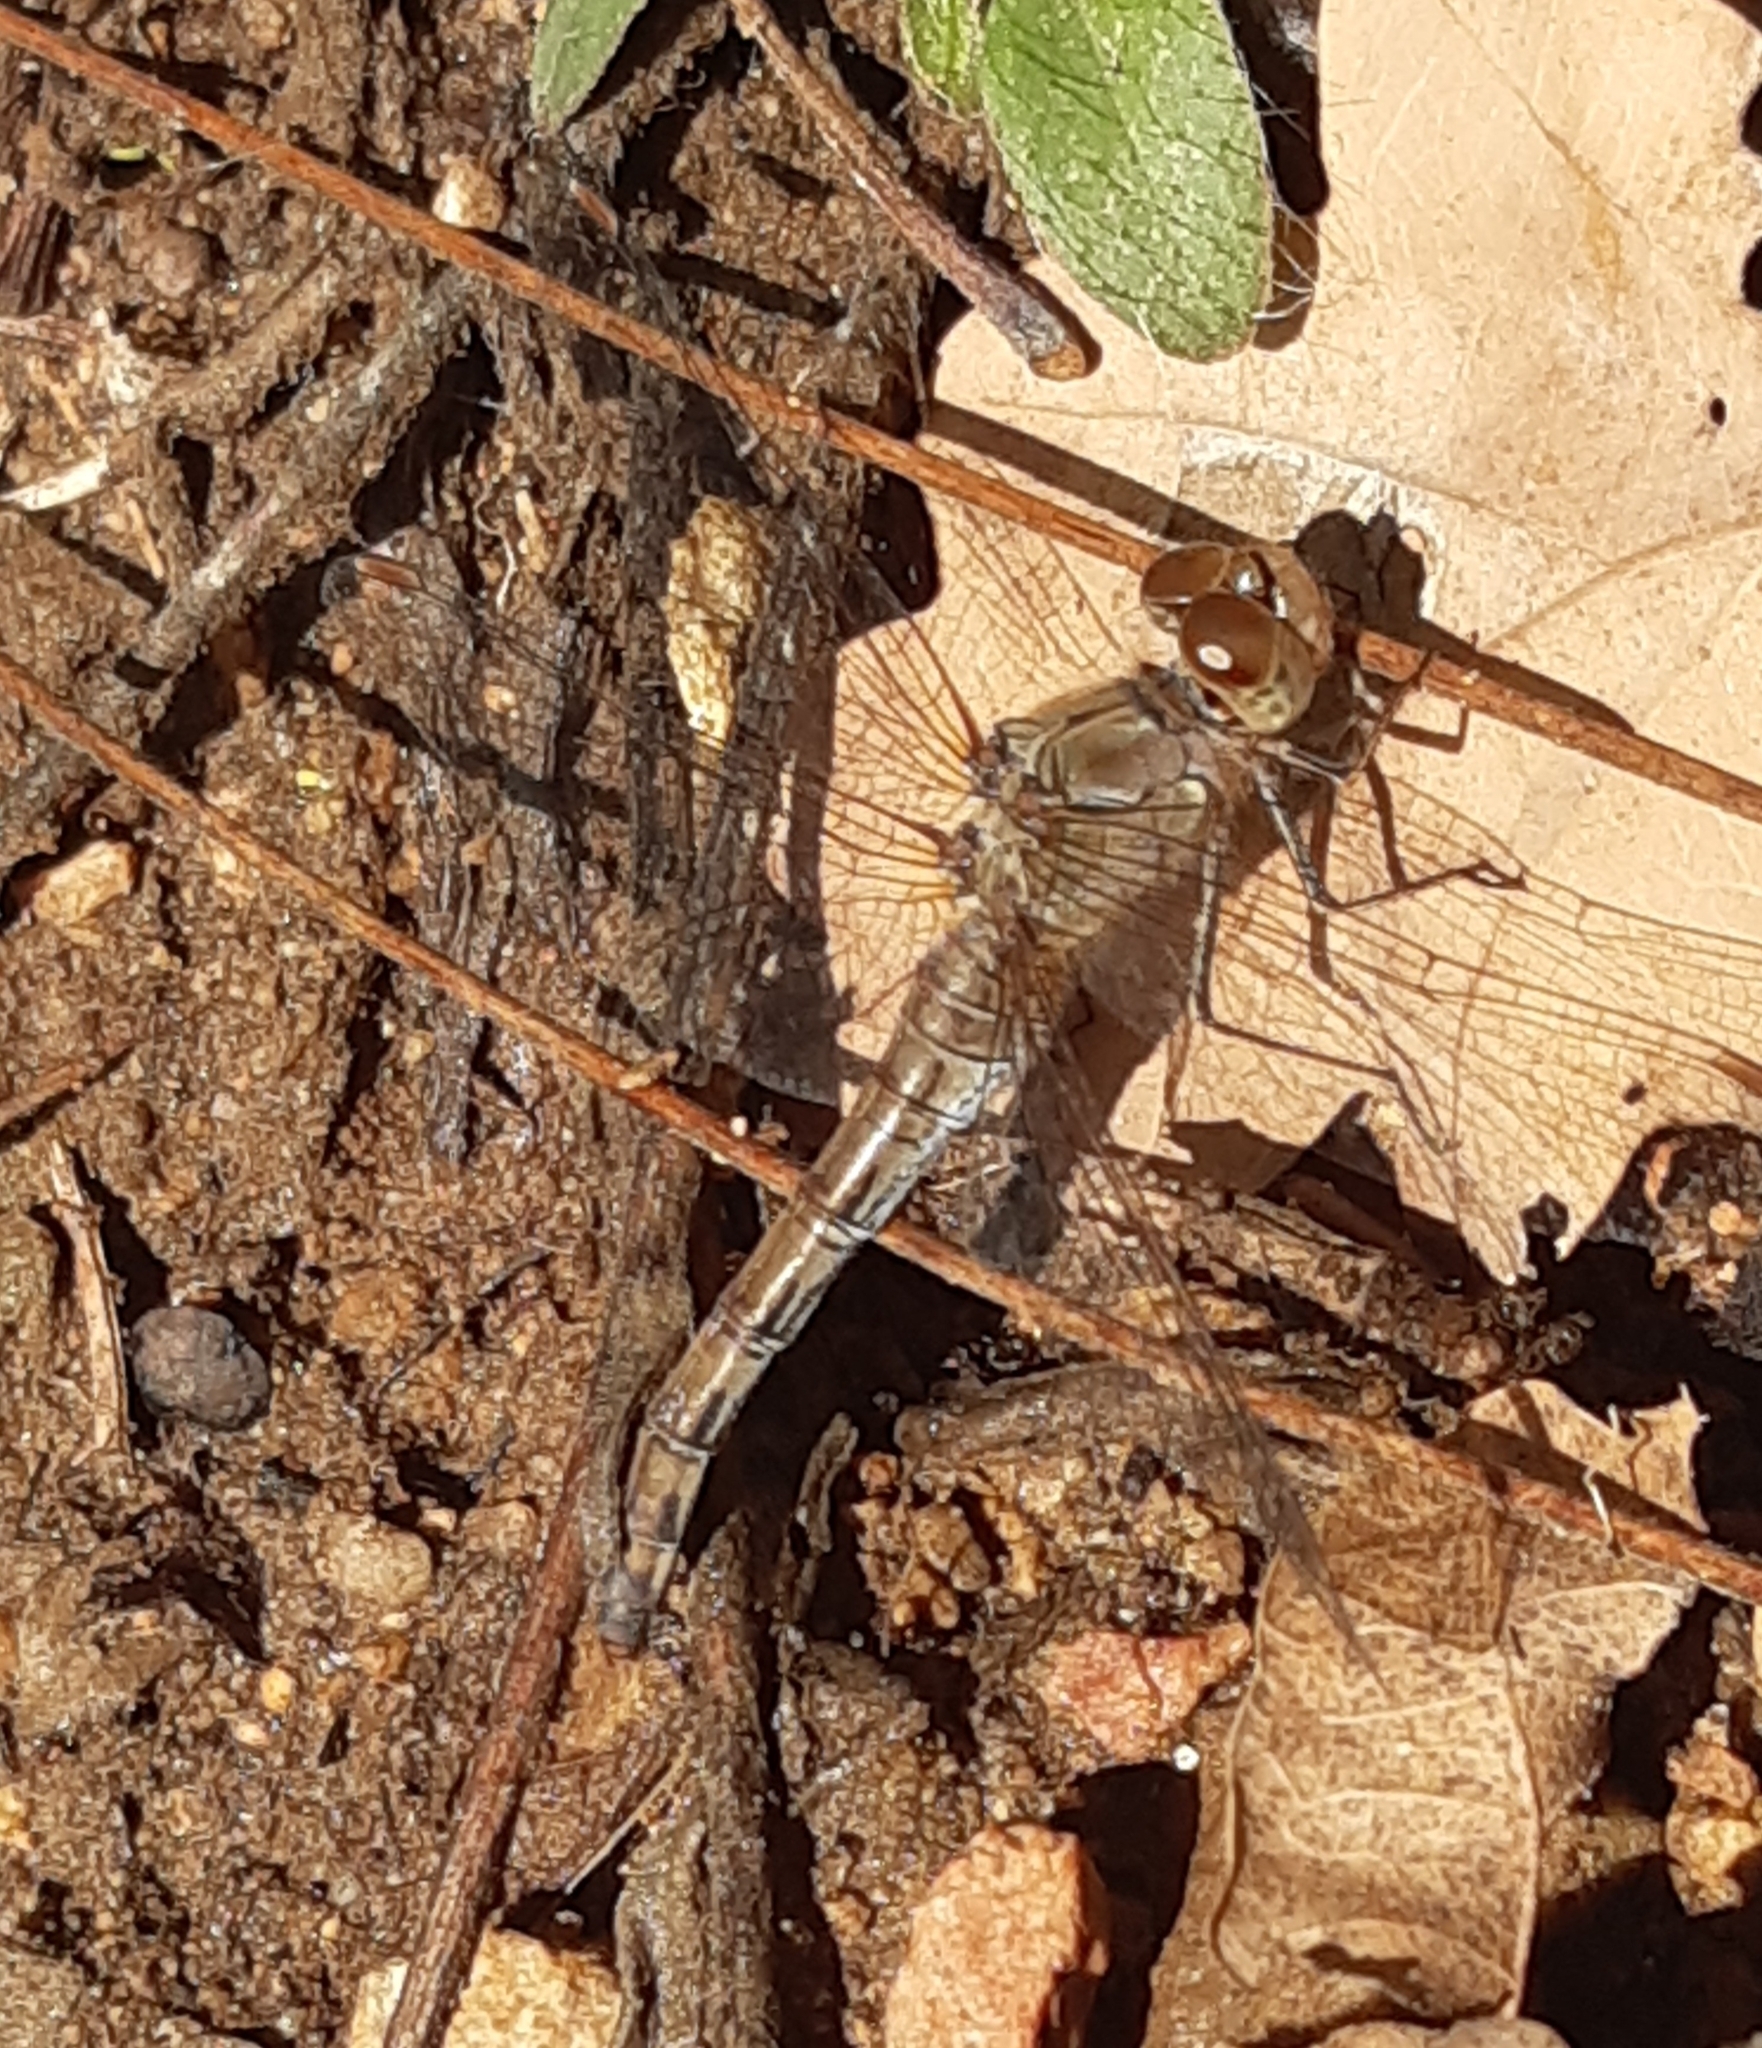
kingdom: Animalia
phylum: Arthropoda
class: Insecta
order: Odonata
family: Libellulidae
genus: Sympetrum
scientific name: Sympetrum striolatum
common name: Common darter
